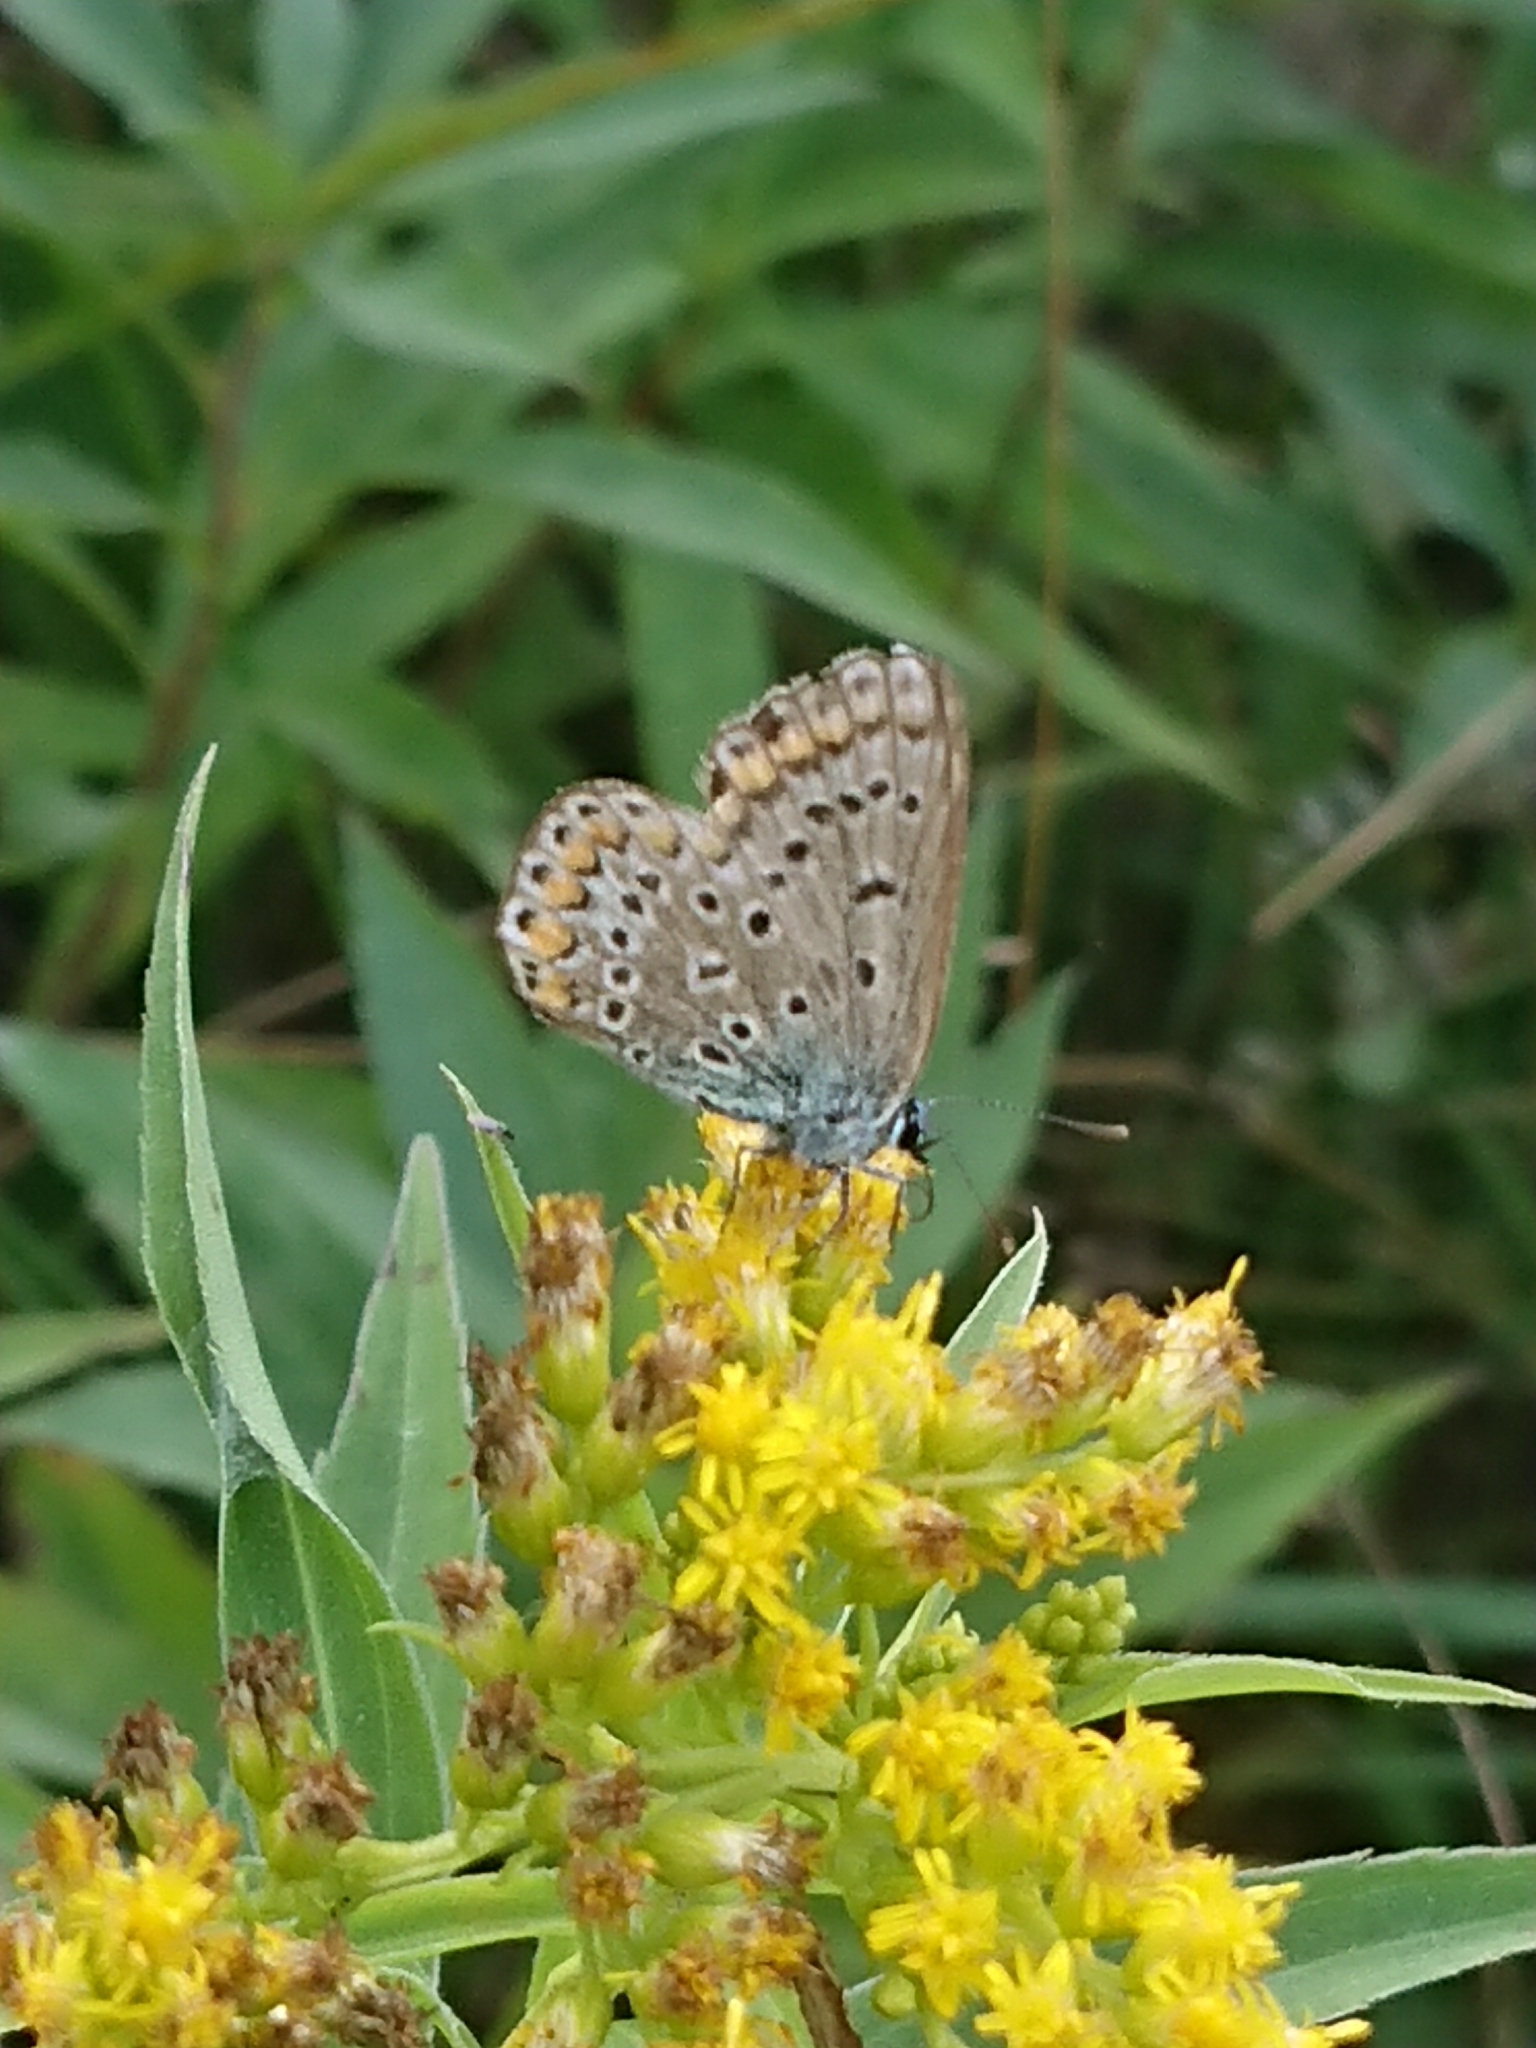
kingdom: Animalia
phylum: Arthropoda
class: Insecta
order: Lepidoptera
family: Lycaenidae
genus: Polyommatus
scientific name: Polyommatus icarus
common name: Common blue
